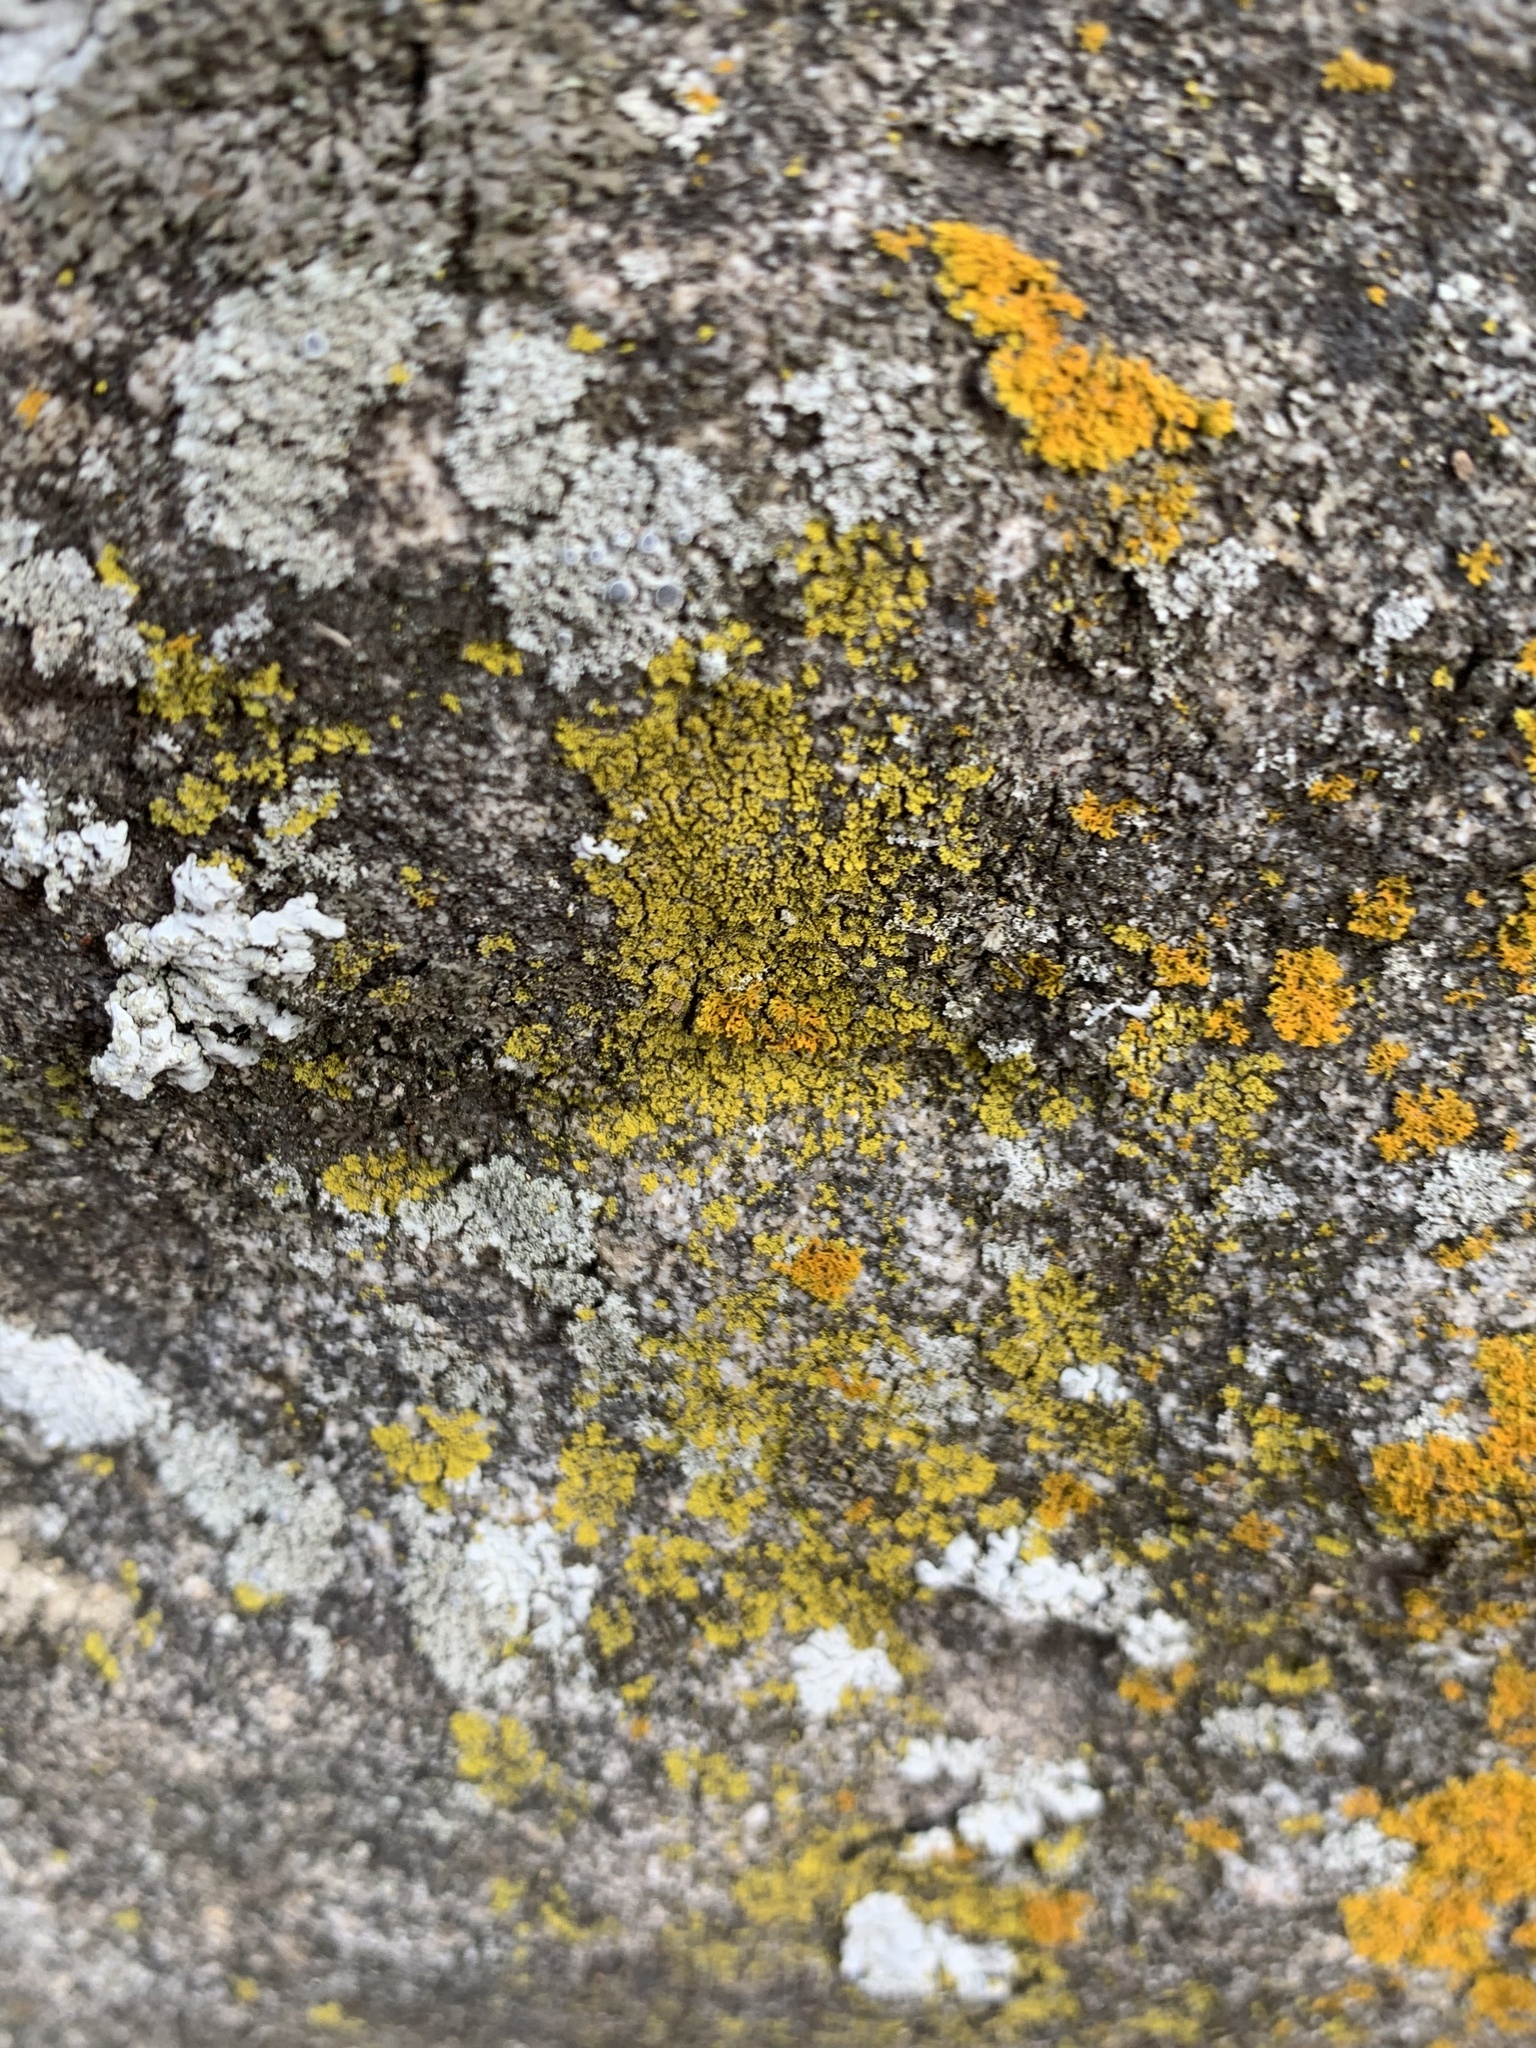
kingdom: Fungi
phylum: Ascomycota
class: Candelariomycetes
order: Candelariales
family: Candelariaceae
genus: Candelaria
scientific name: Candelaria concolor
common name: Candleflame lichen
